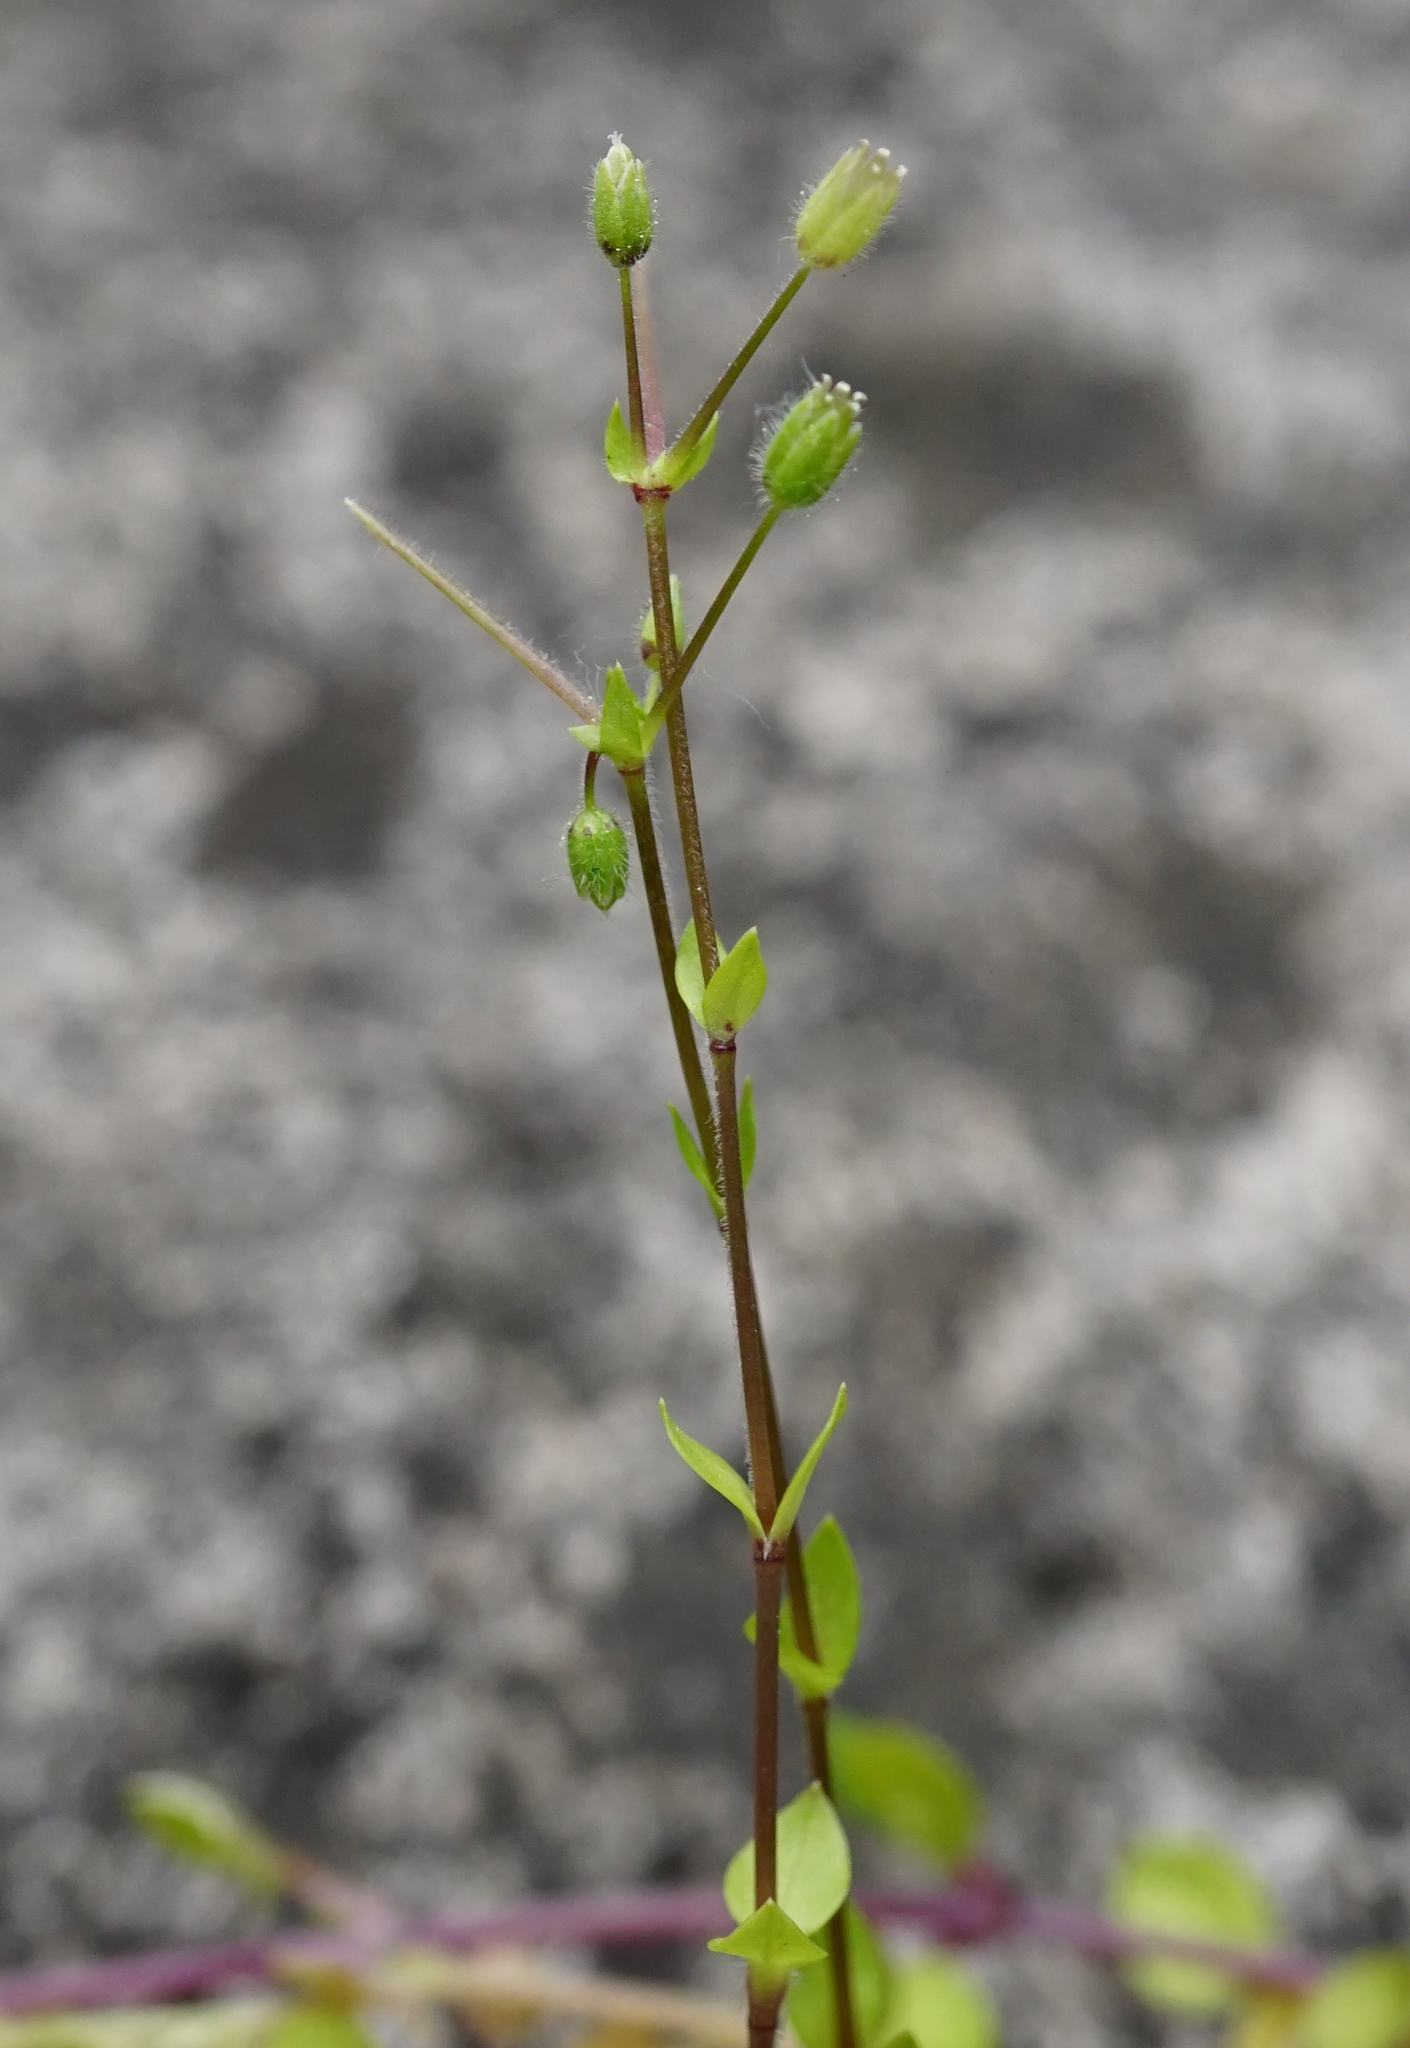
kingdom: Plantae
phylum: Tracheophyta
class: Magnoliopsida
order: Caryophyllales
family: Caryophyllaceae
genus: Stellaria
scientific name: Stellaria media
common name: Common chickweed
